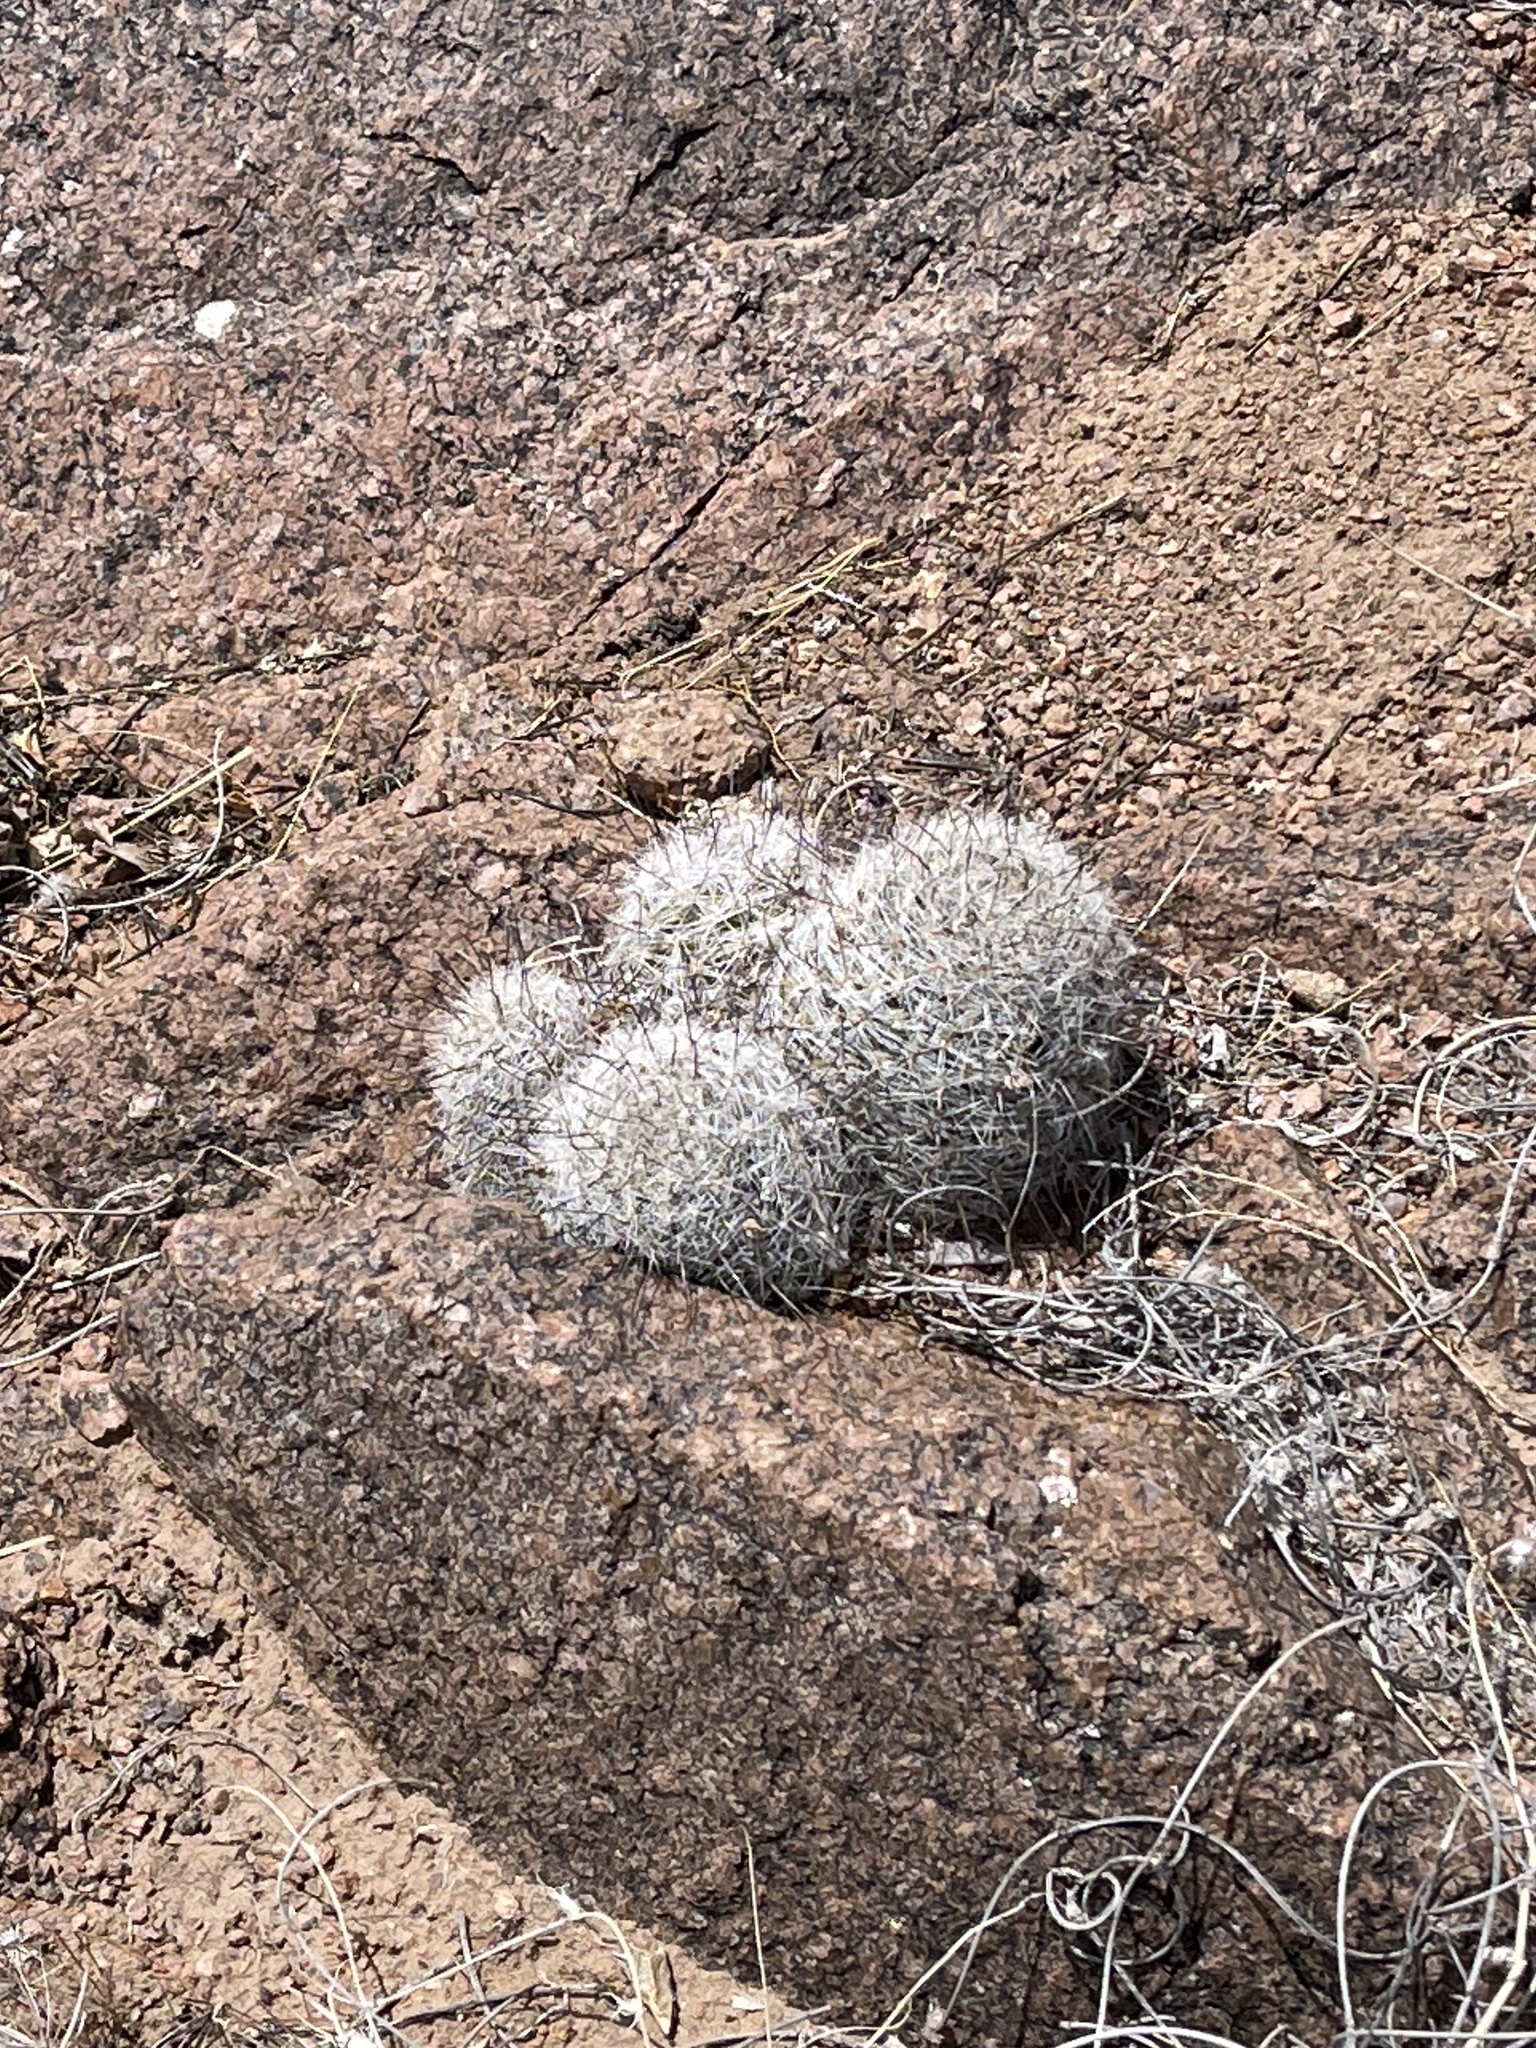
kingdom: Plantae
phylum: Tracheophyta
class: Magnoliopsida
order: Caryophyllales
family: Cactaceae
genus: Cochemiea
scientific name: Cochemiea grahamii
